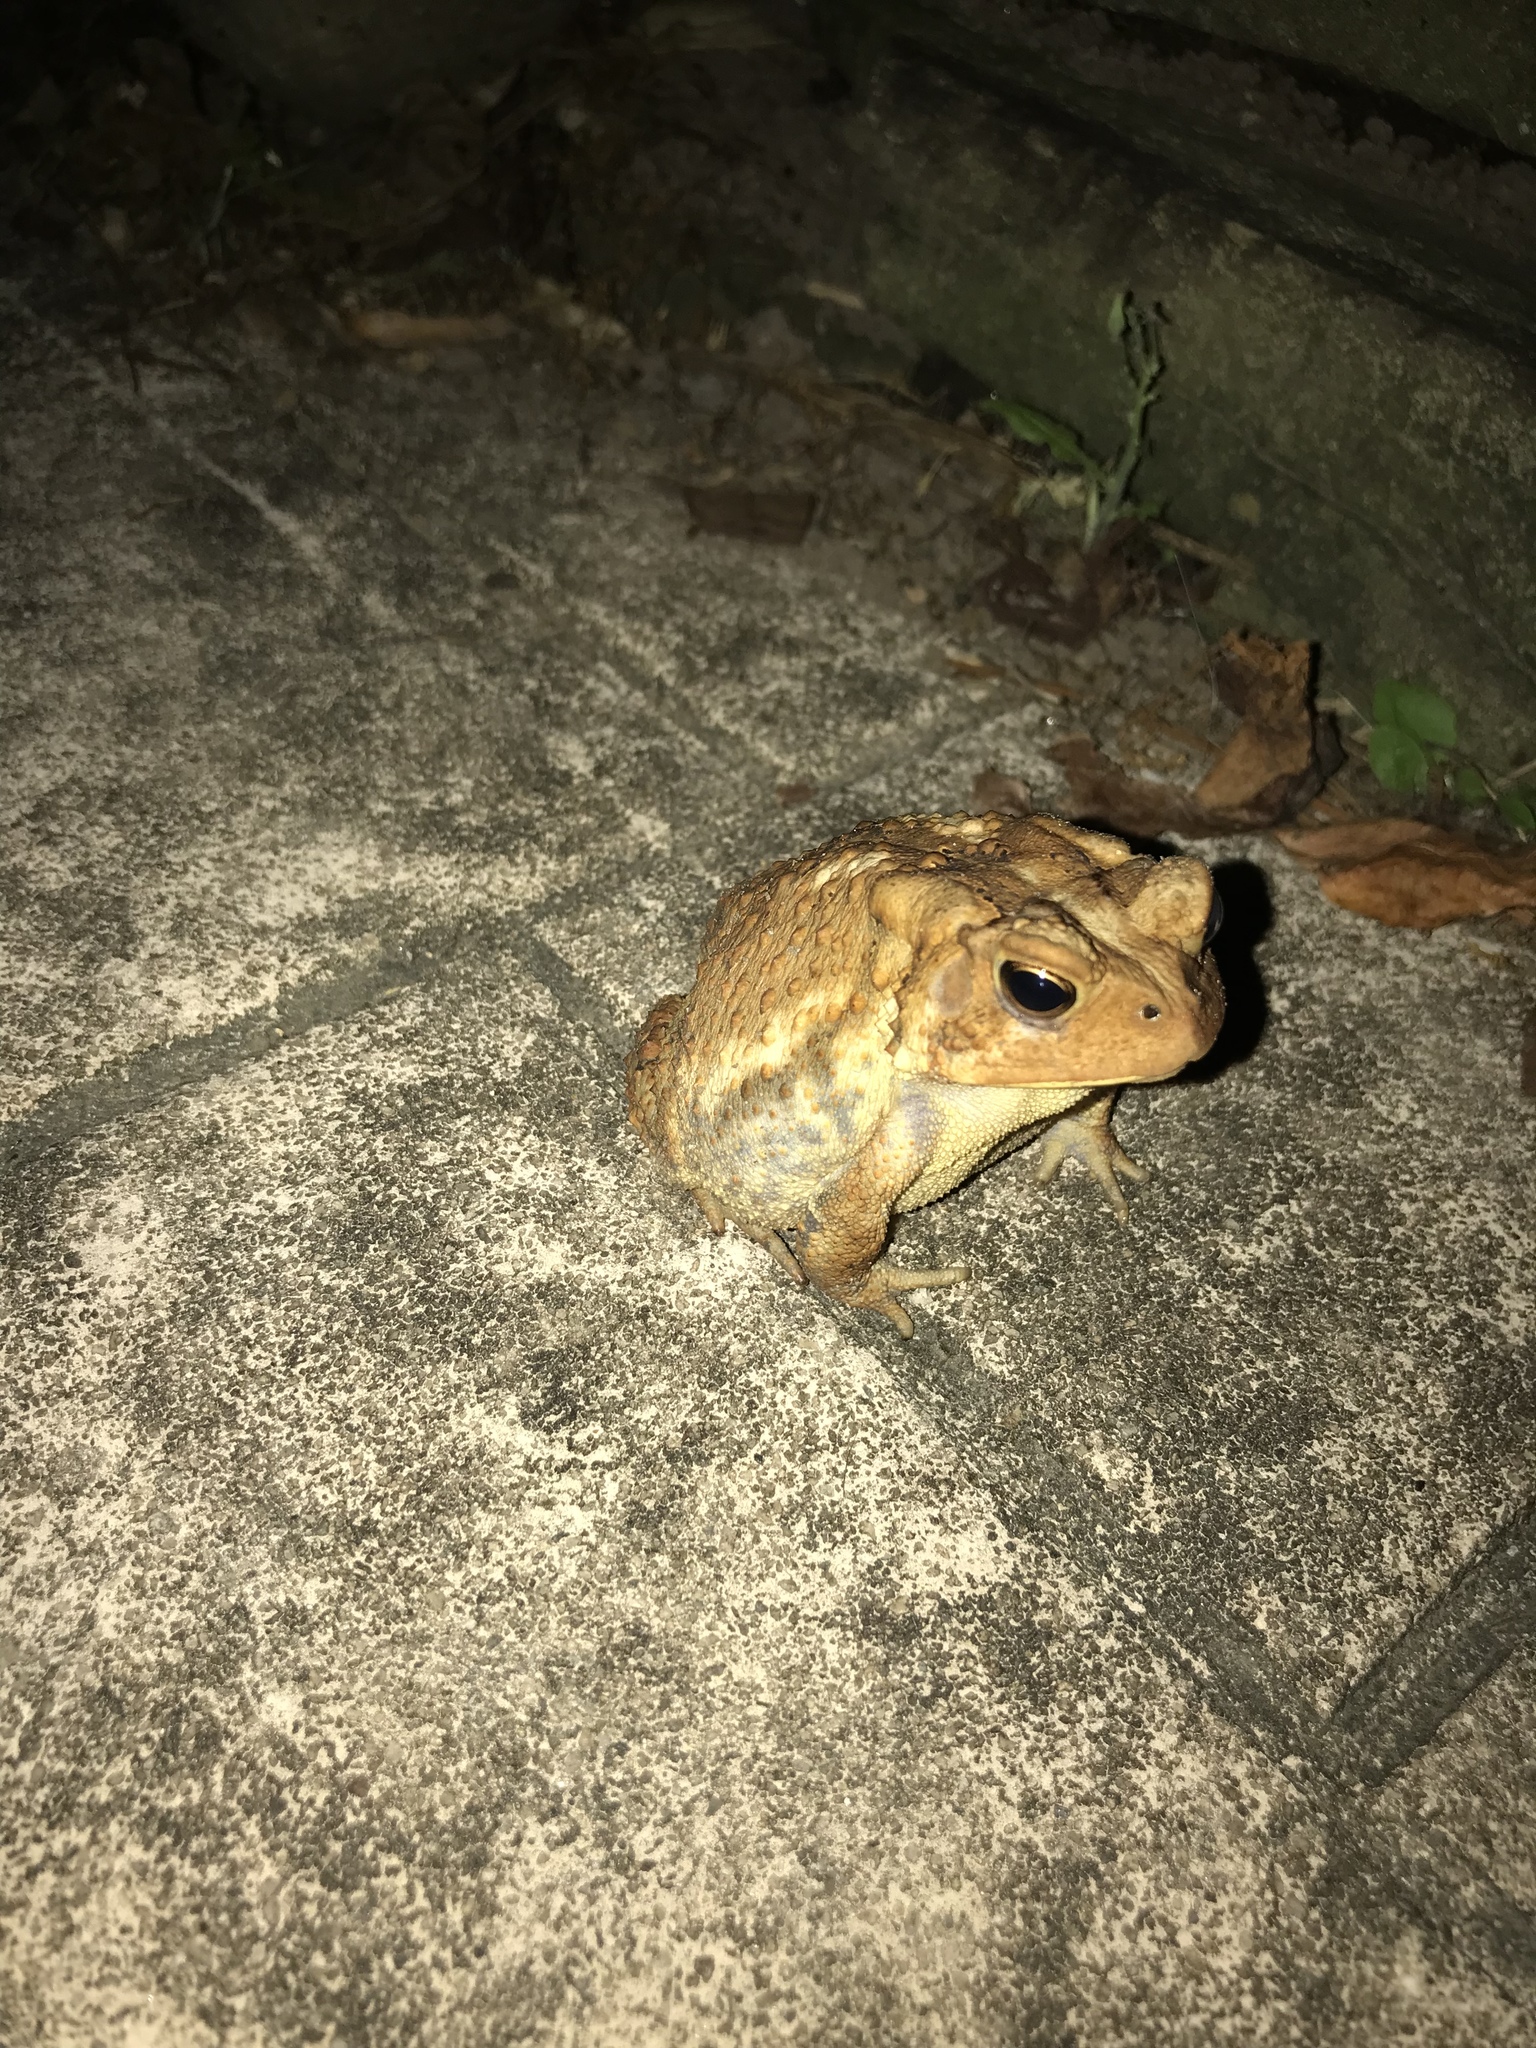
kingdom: Animalia
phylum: Chordata
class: Amphibia
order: Anura
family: Bufonidae
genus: Anaxyrus
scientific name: Anaxyrus americanus
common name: American toad
